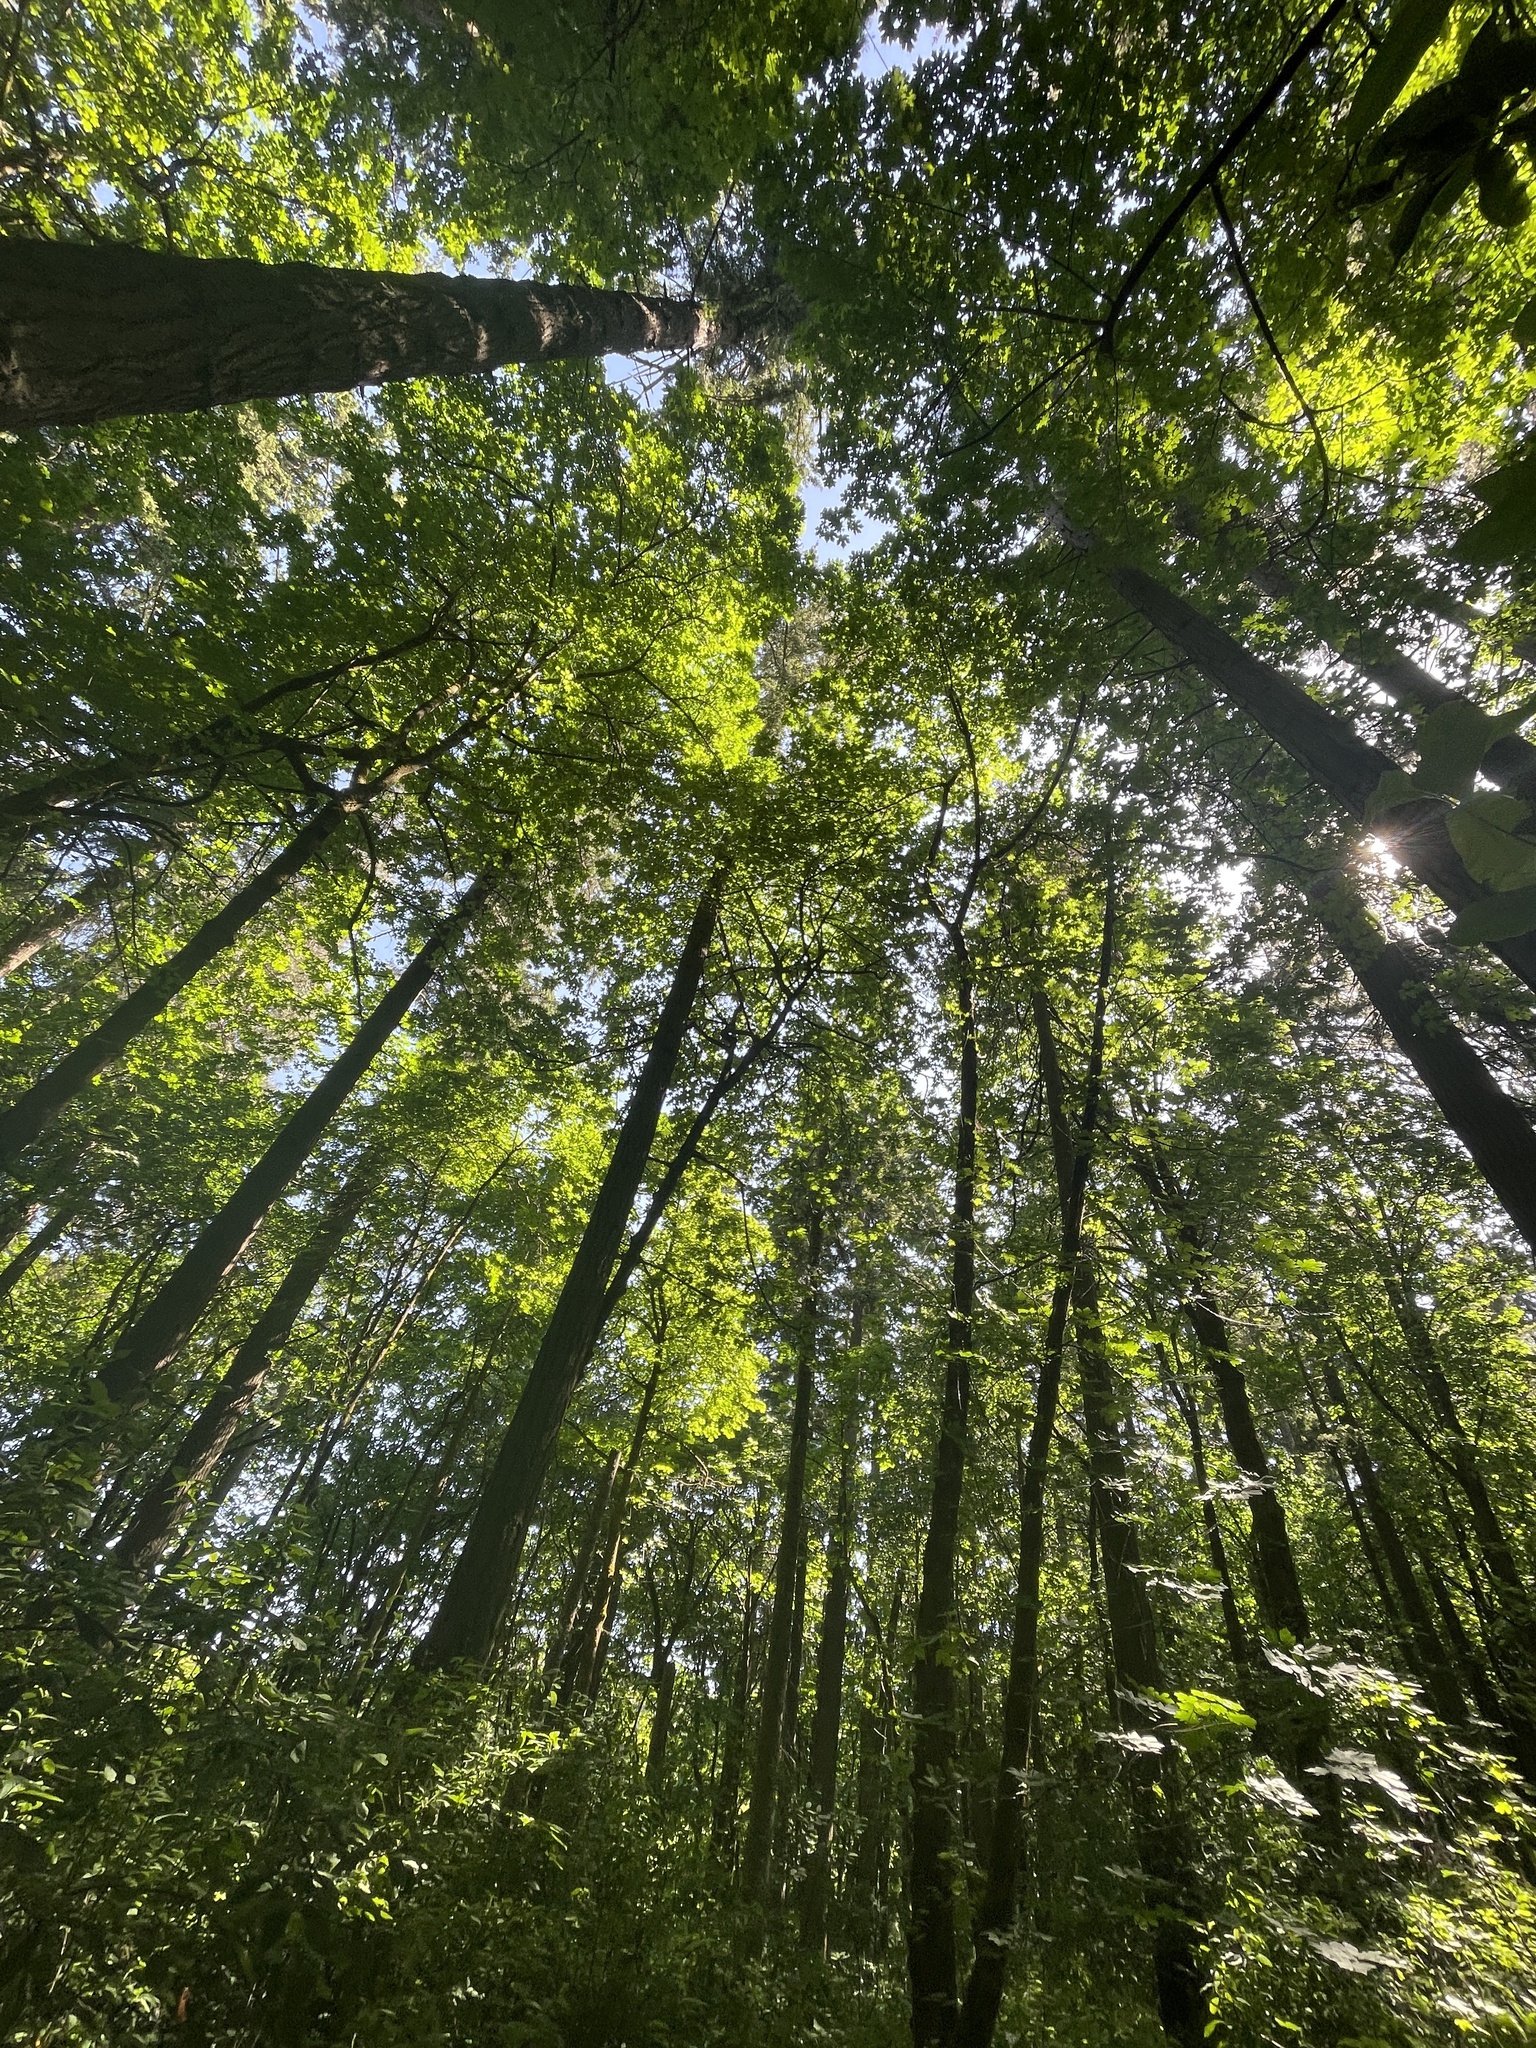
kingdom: Fungi
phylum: Ascomycota
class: Pezizomycetes
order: Pezizales
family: Tuberaceae
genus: Tuber
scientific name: Tuber gibbosum
